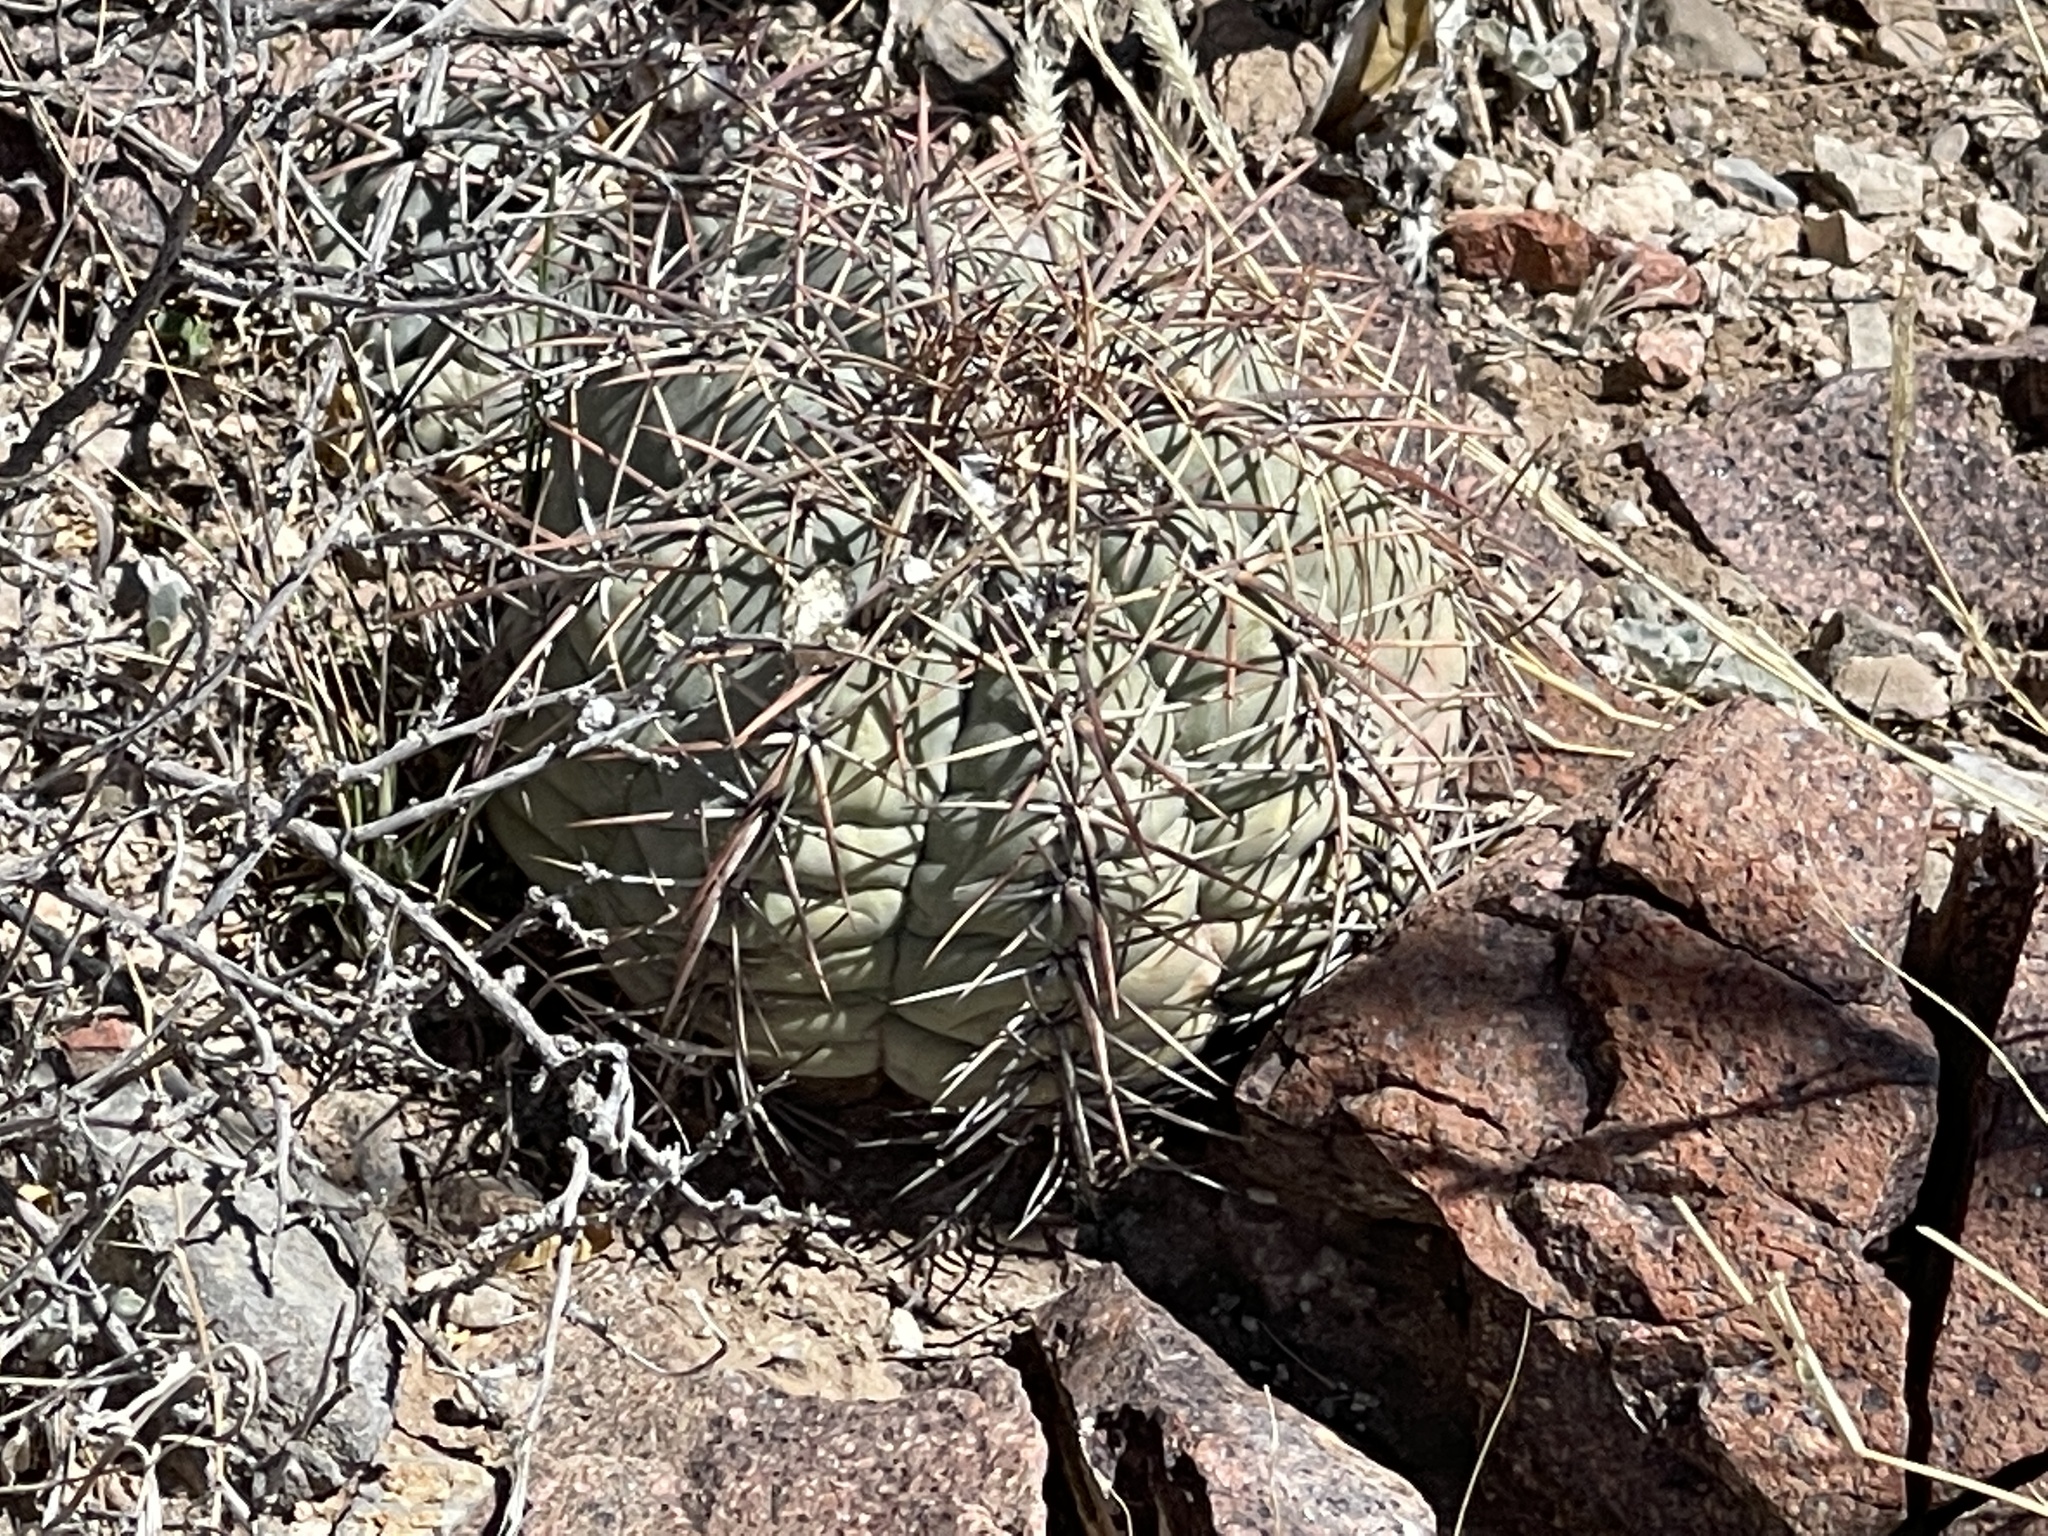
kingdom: Plantae
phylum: Tracheophyta
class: Magnoliopsida
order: Caryophyllales
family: Cactaceae
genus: Echinocactus
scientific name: Echinocactus horizonthalonius
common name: Devilshead
